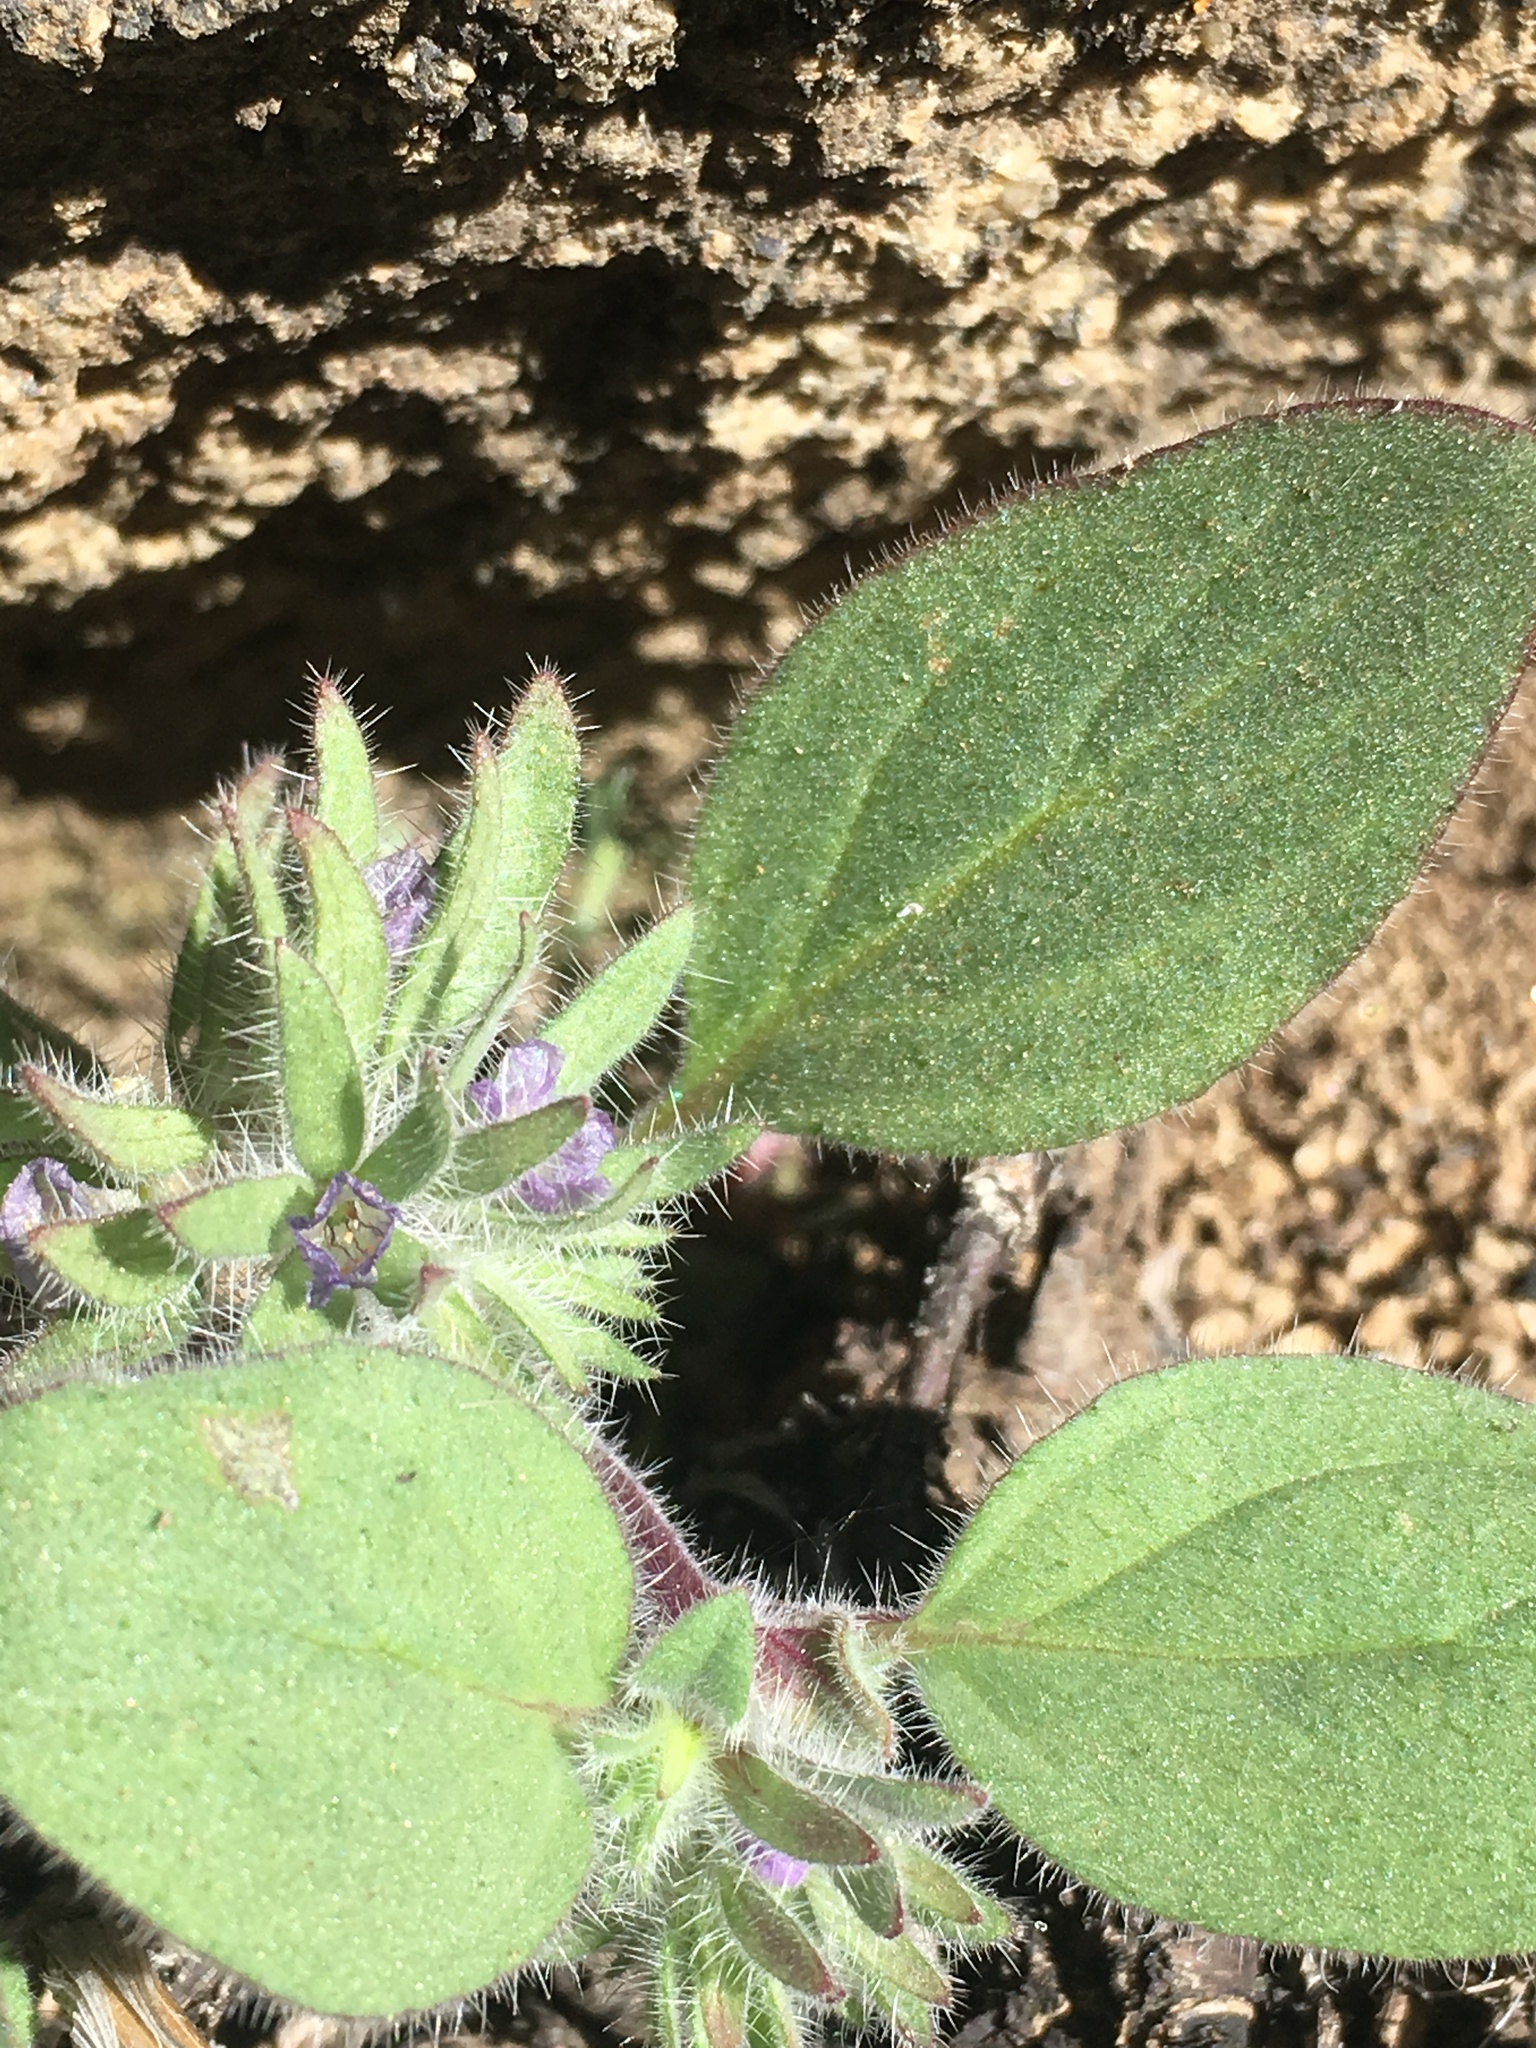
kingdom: Plantae
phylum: Tracheophyta
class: Magnoliopsida
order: Boraginales
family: Hydrophyllaceae
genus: Phacelia
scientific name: Phacelia novenmillensis
